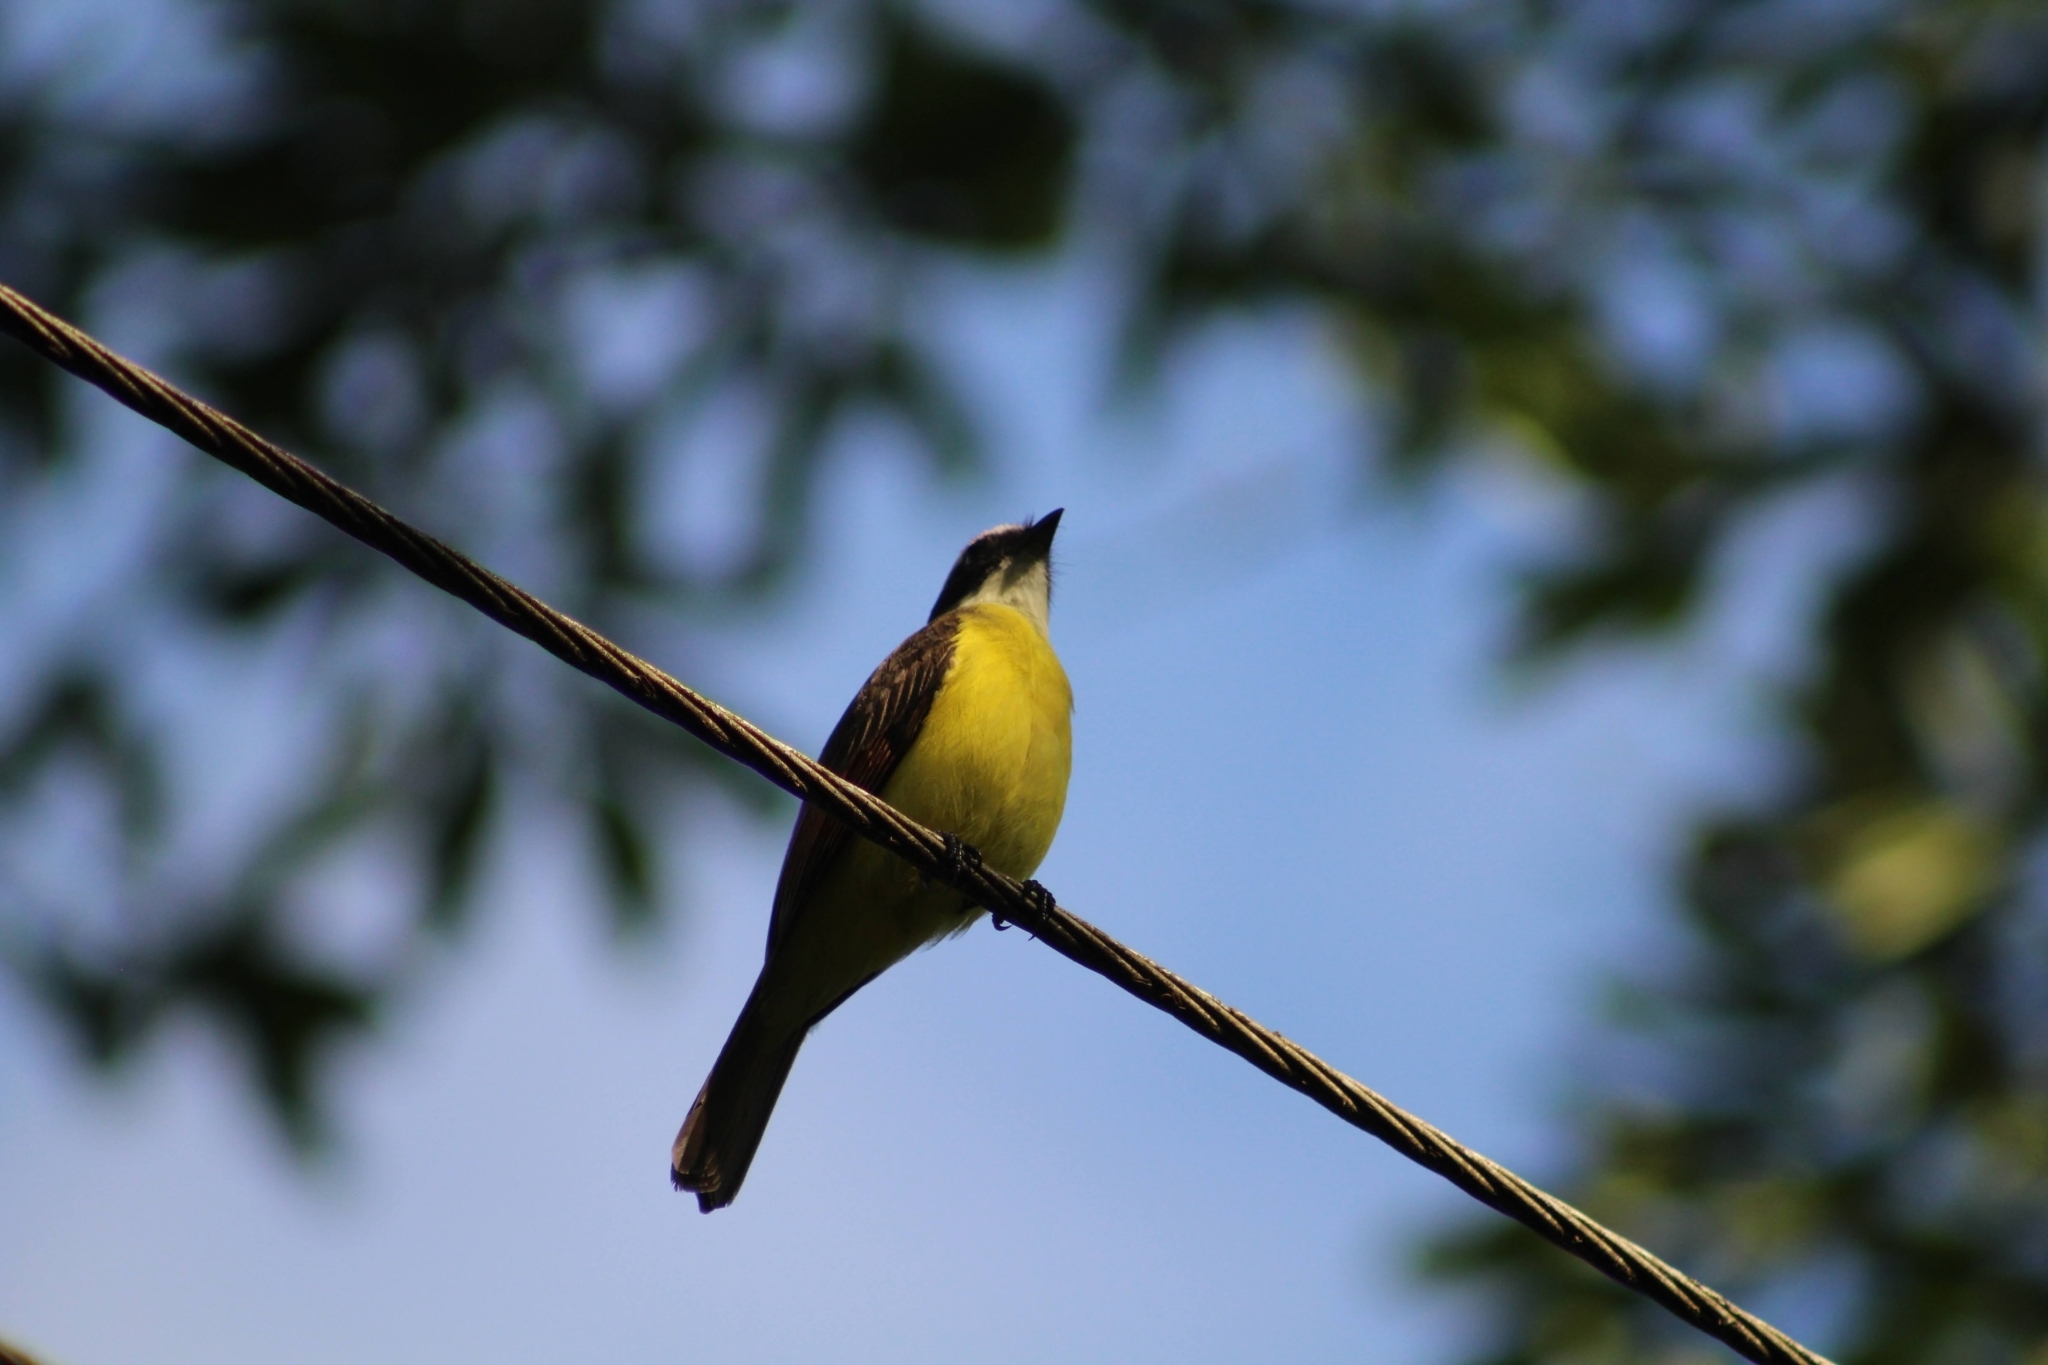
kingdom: Animalia
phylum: Chordata
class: Aves
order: Passeriformes
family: Tyrannidae
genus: Myiozetetes
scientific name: Myiozetetes cayanensis
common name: Rusty-margined flycatcher
